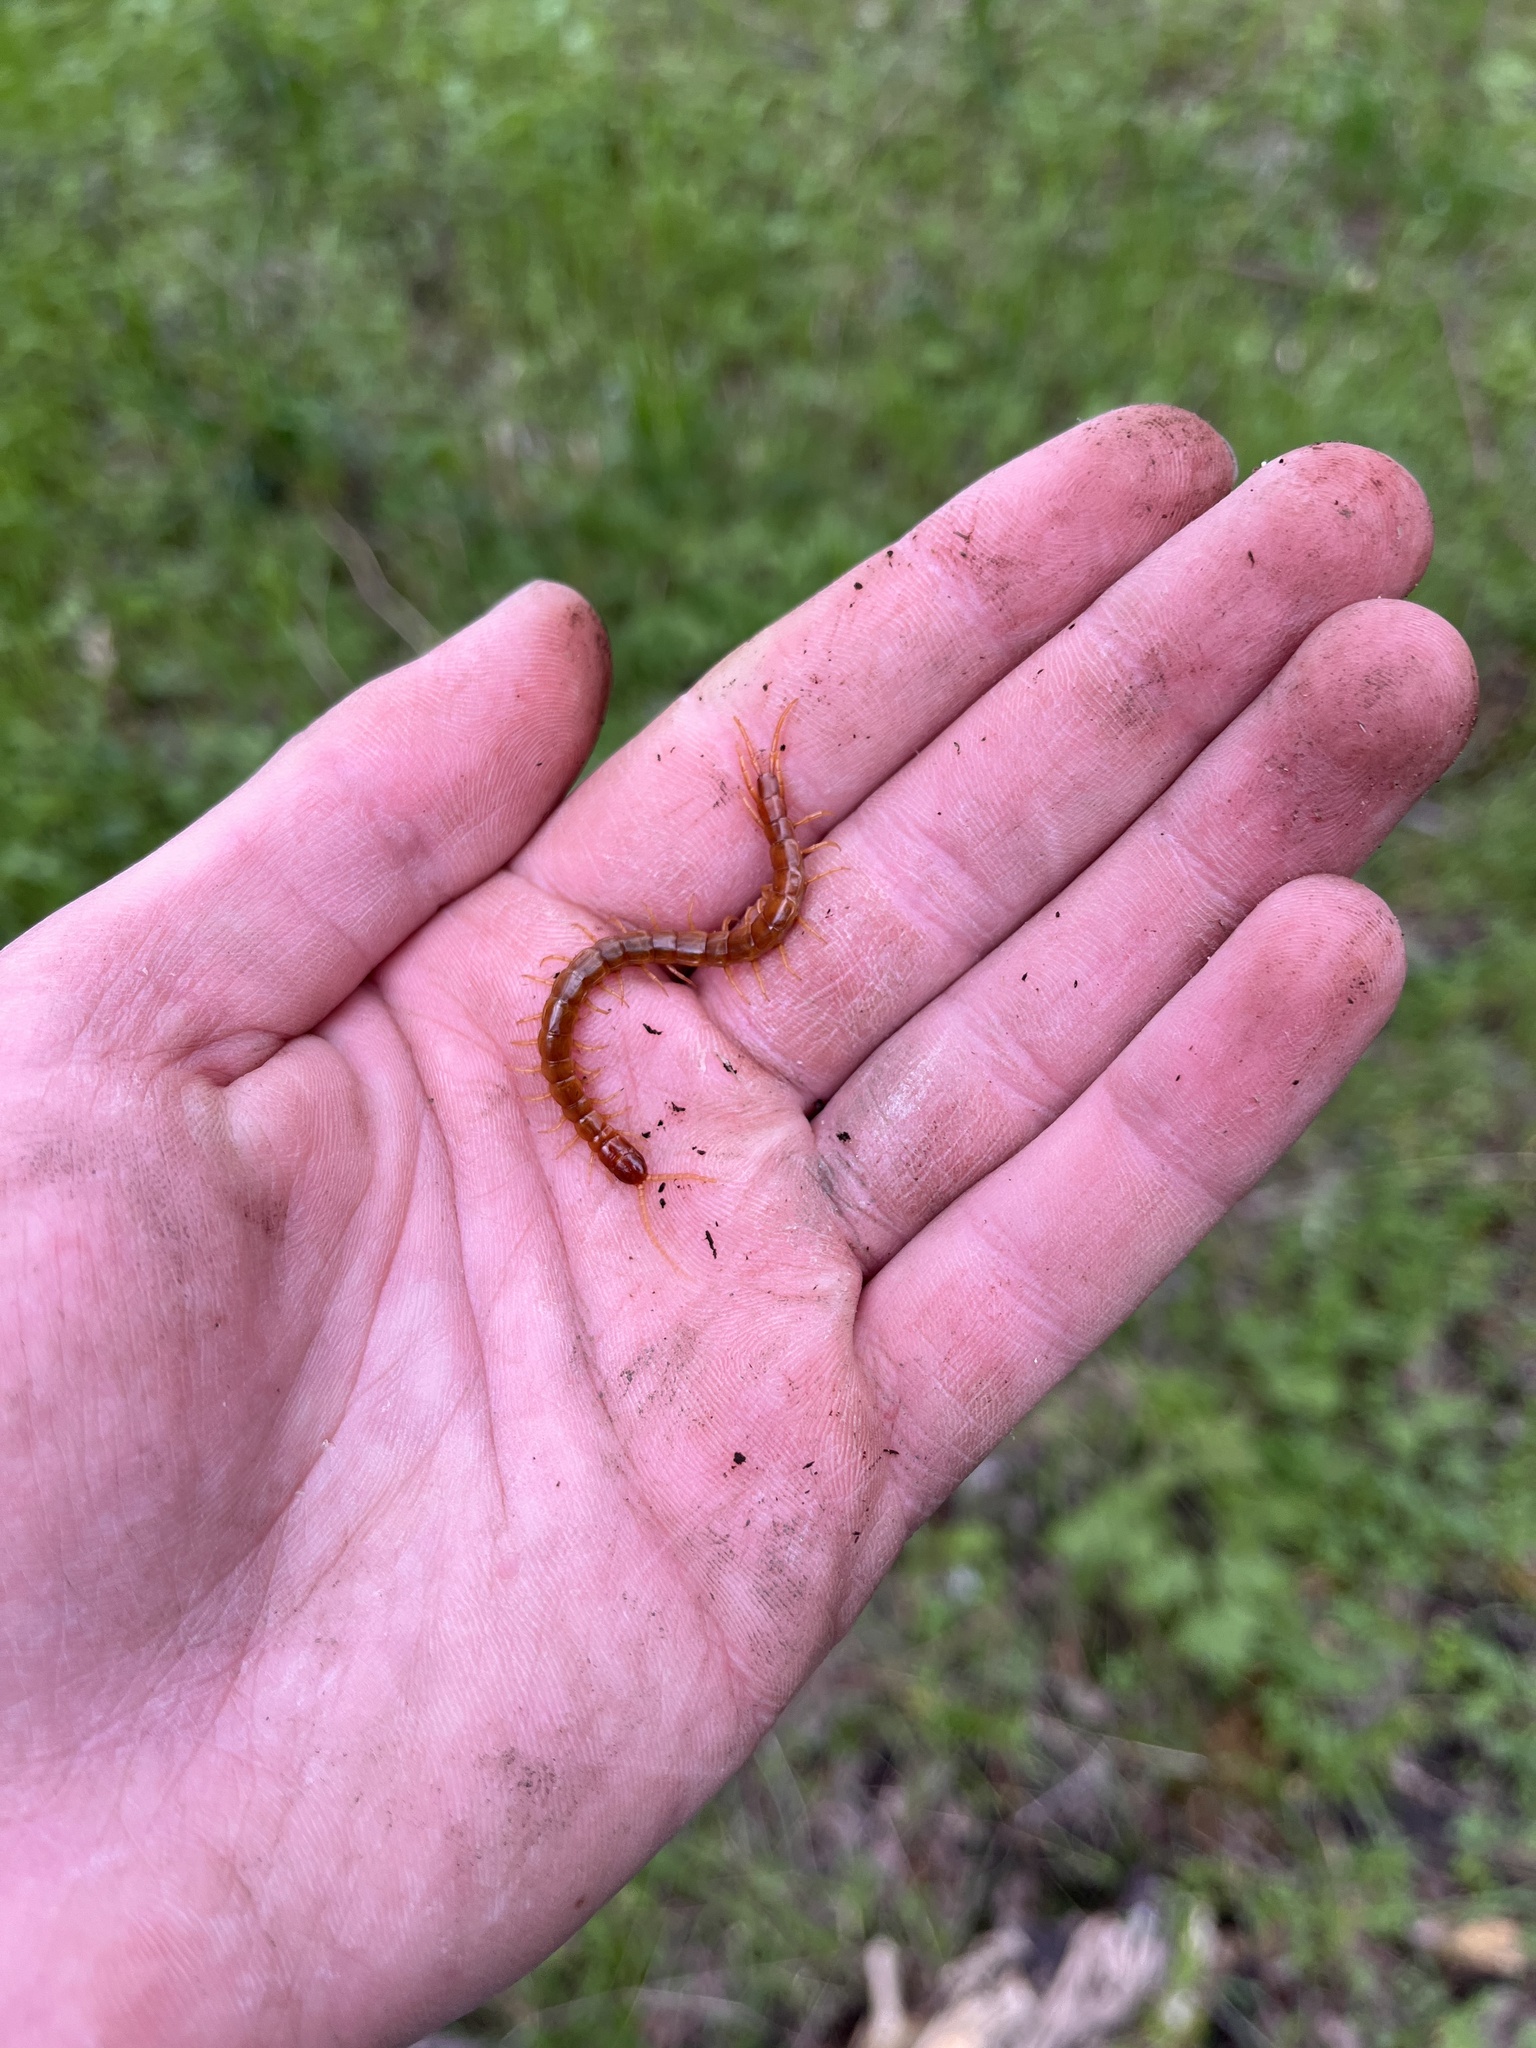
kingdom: Animalia
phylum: Arthropoda
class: Chilopoda
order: Scolopendromorpha
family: Scolopocryptopidae
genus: Scolopocryptops
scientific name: Scolopocryptops gracilis
